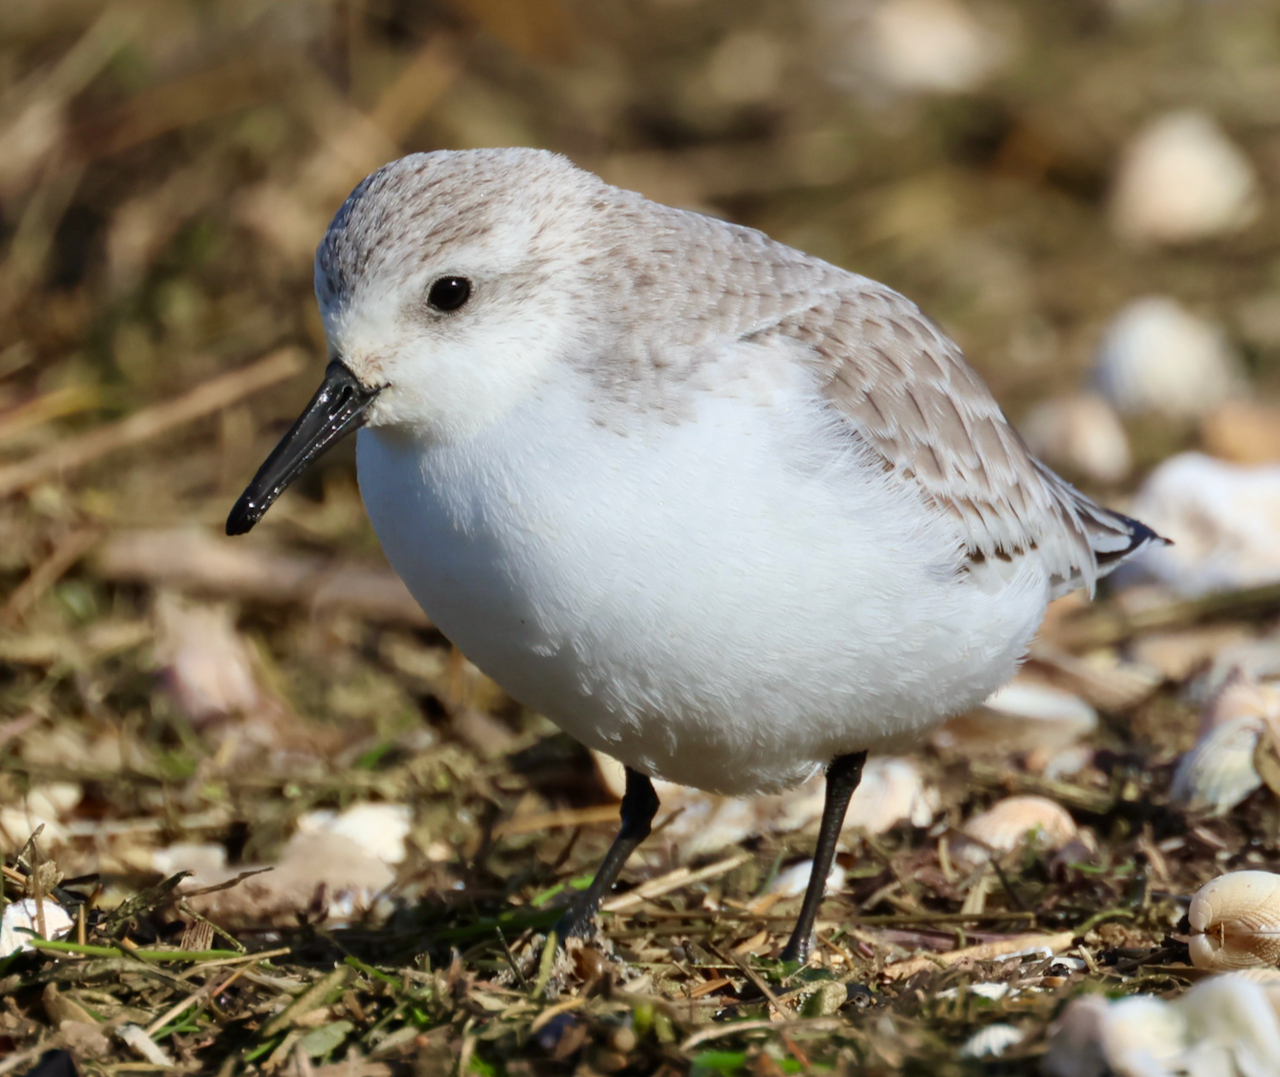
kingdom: Animalia
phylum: Chordata
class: Aves
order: Charadriiformes
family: Scolopacidae
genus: Calidris
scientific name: Calidris alba
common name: Sanderling
